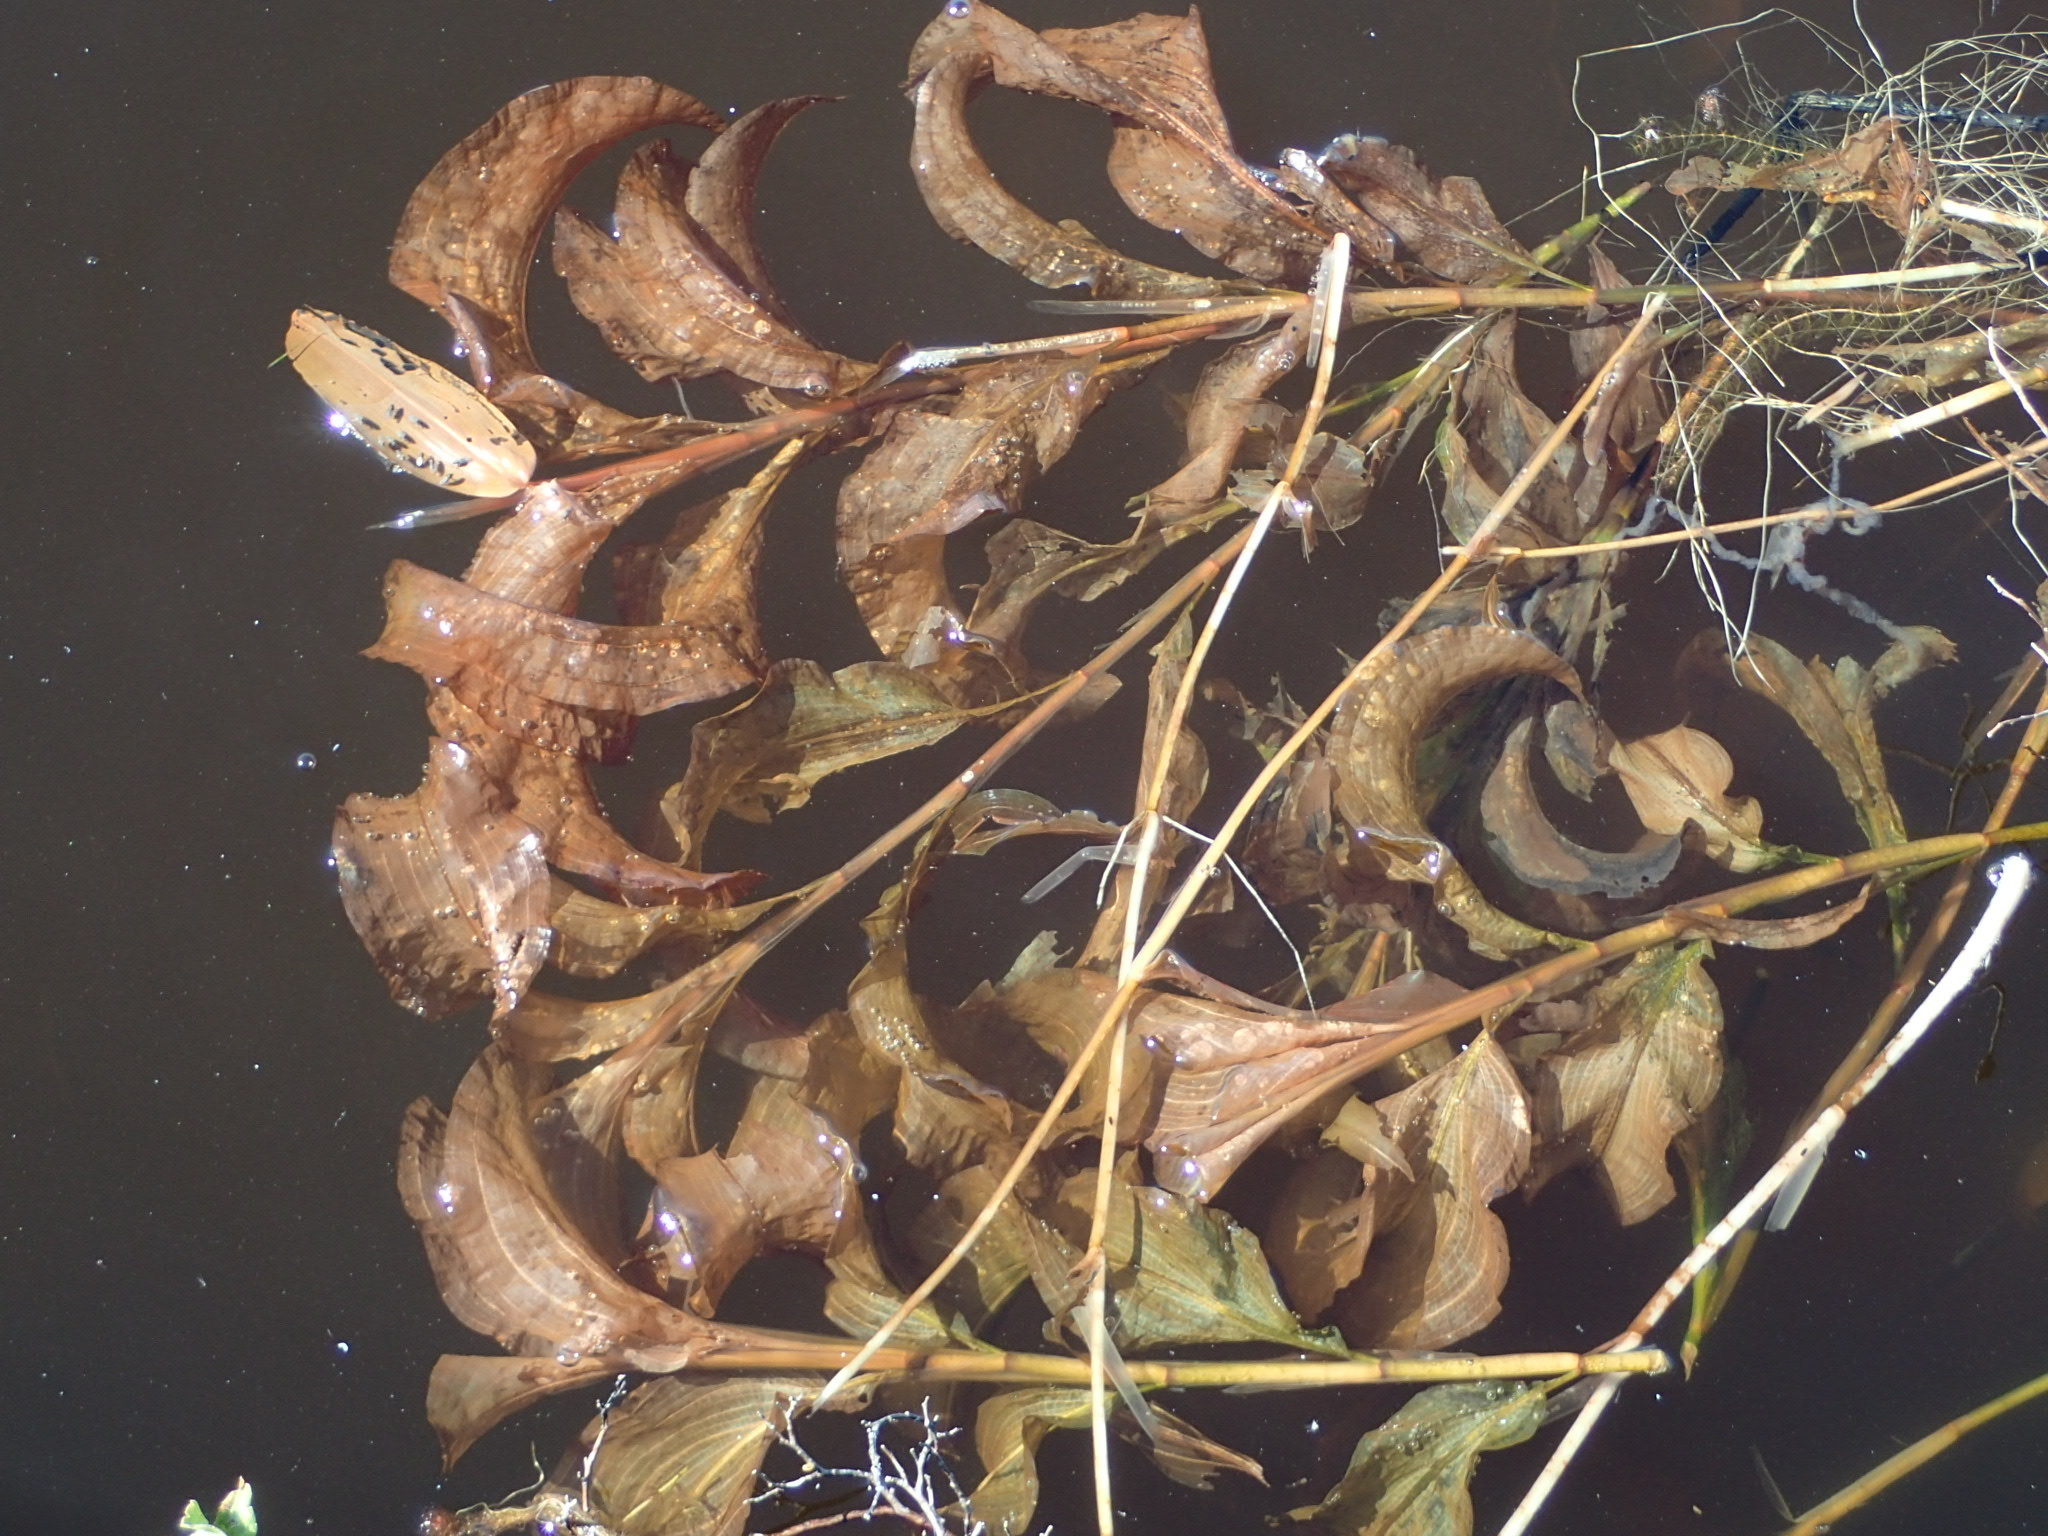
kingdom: Plantae
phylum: Tracheophyta
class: Liliopsida
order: Alismatales
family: Potamogetonaceae
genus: Potamogeton
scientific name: Potamogeton amplifolius
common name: Broad-leaved pondweed
